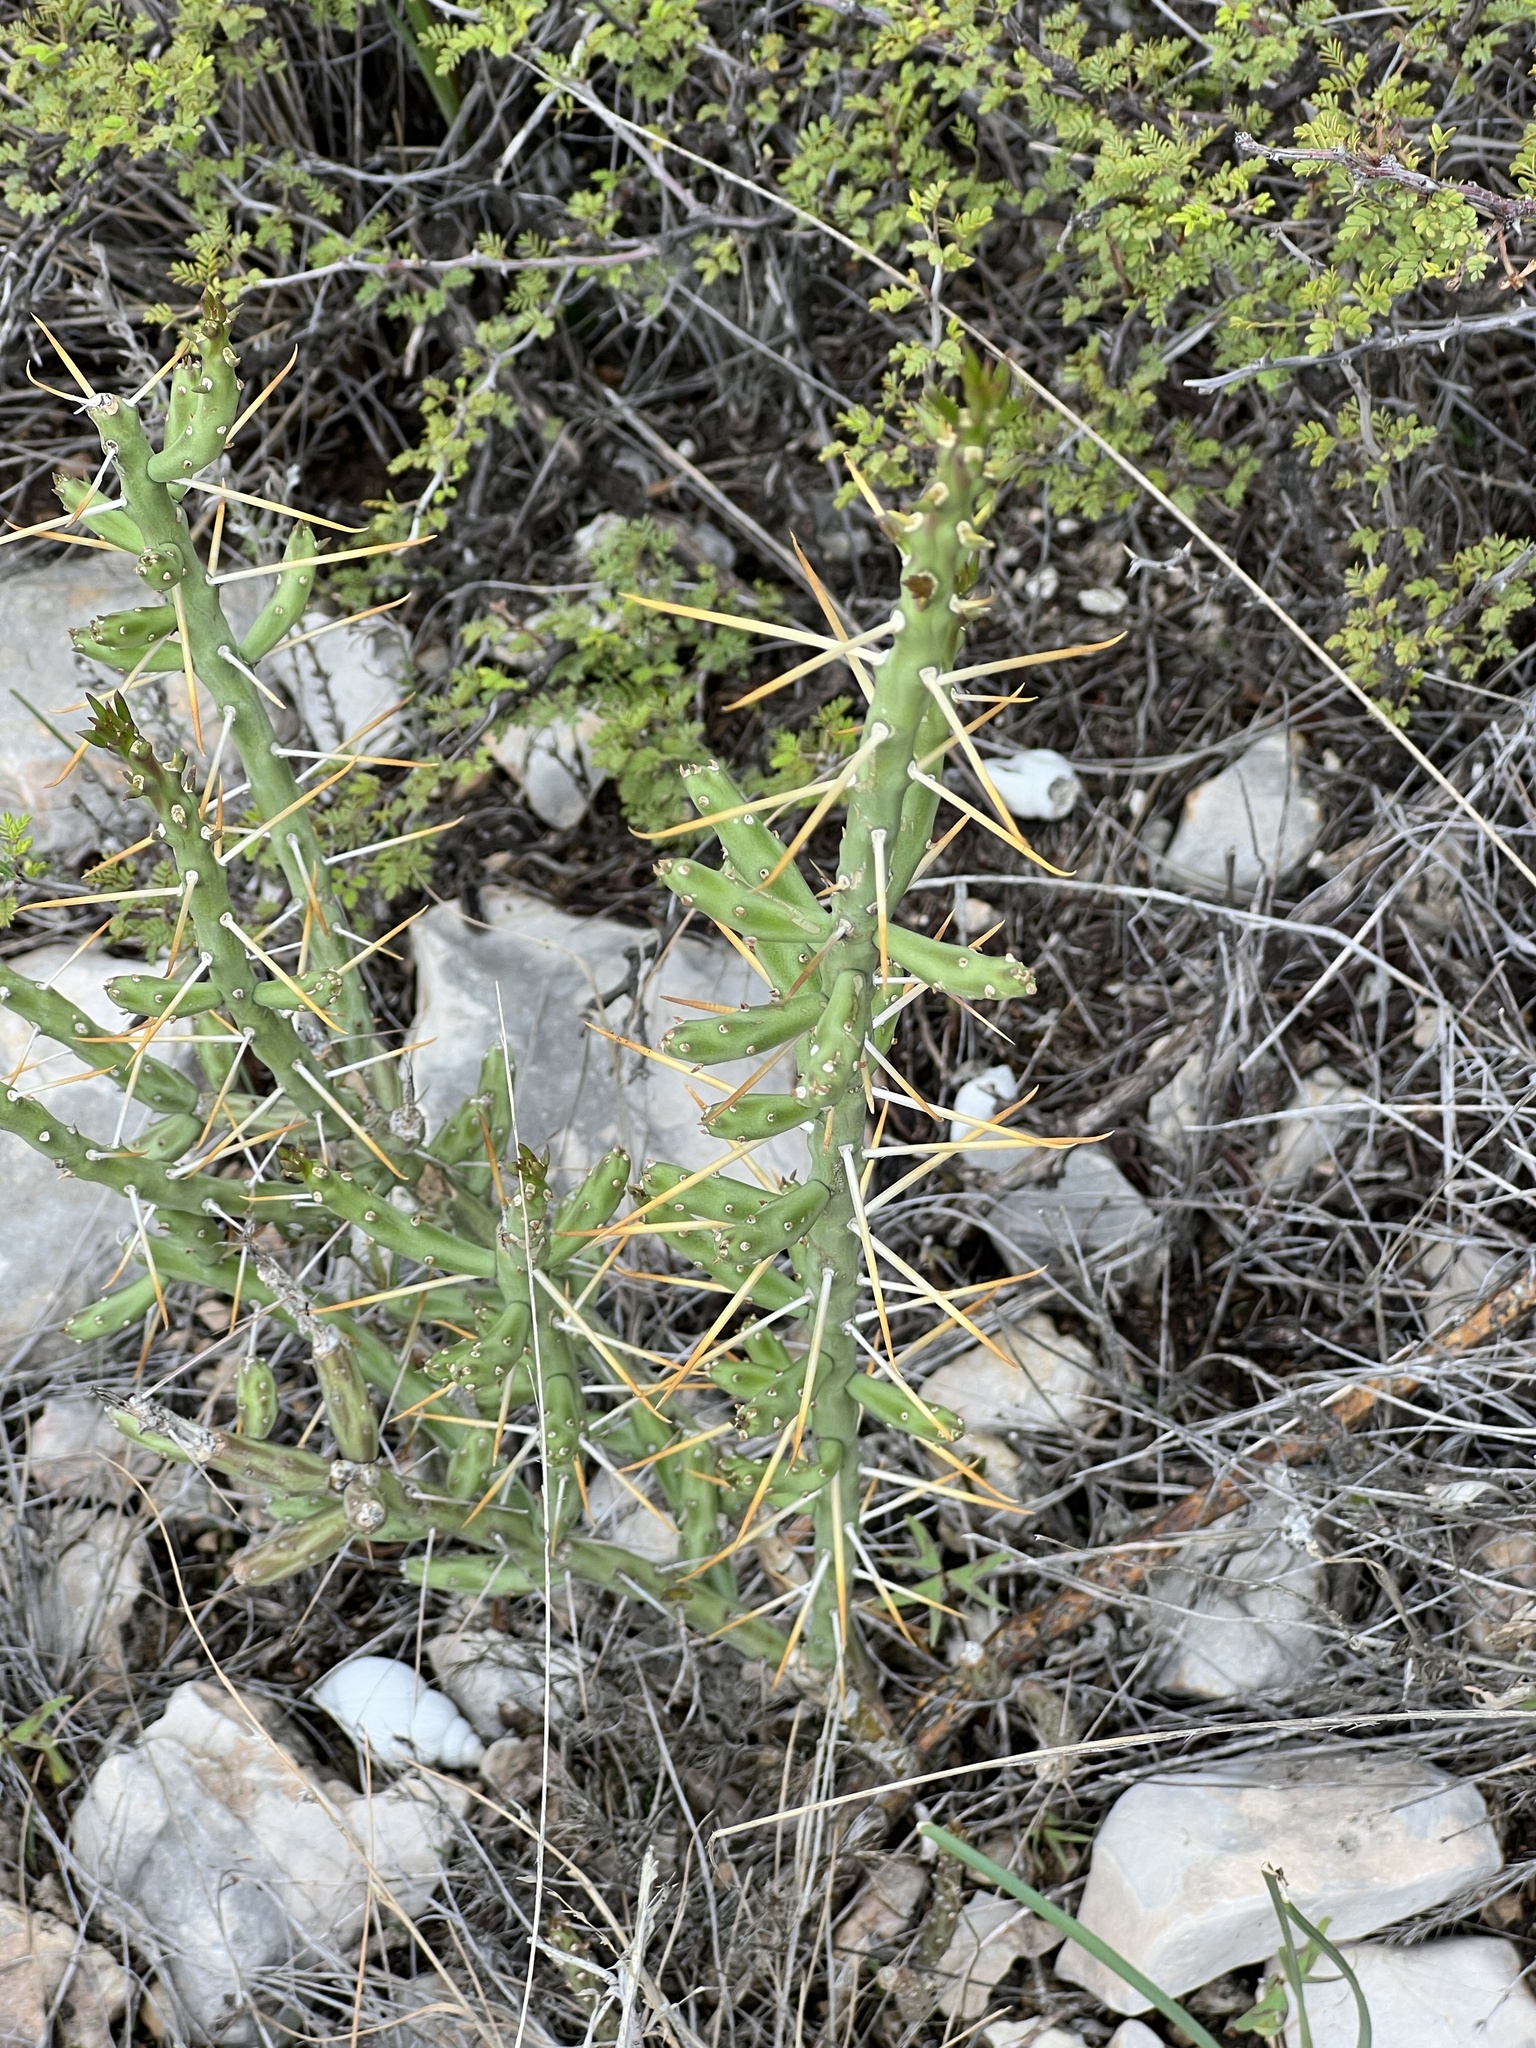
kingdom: Plantae
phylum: Tracheophyta
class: Magnoliopsida
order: Caryophyllales
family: Cactaceae
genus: Cylindropuntia
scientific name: Cylindropuntia leptocaulis
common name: Christmas cactus
